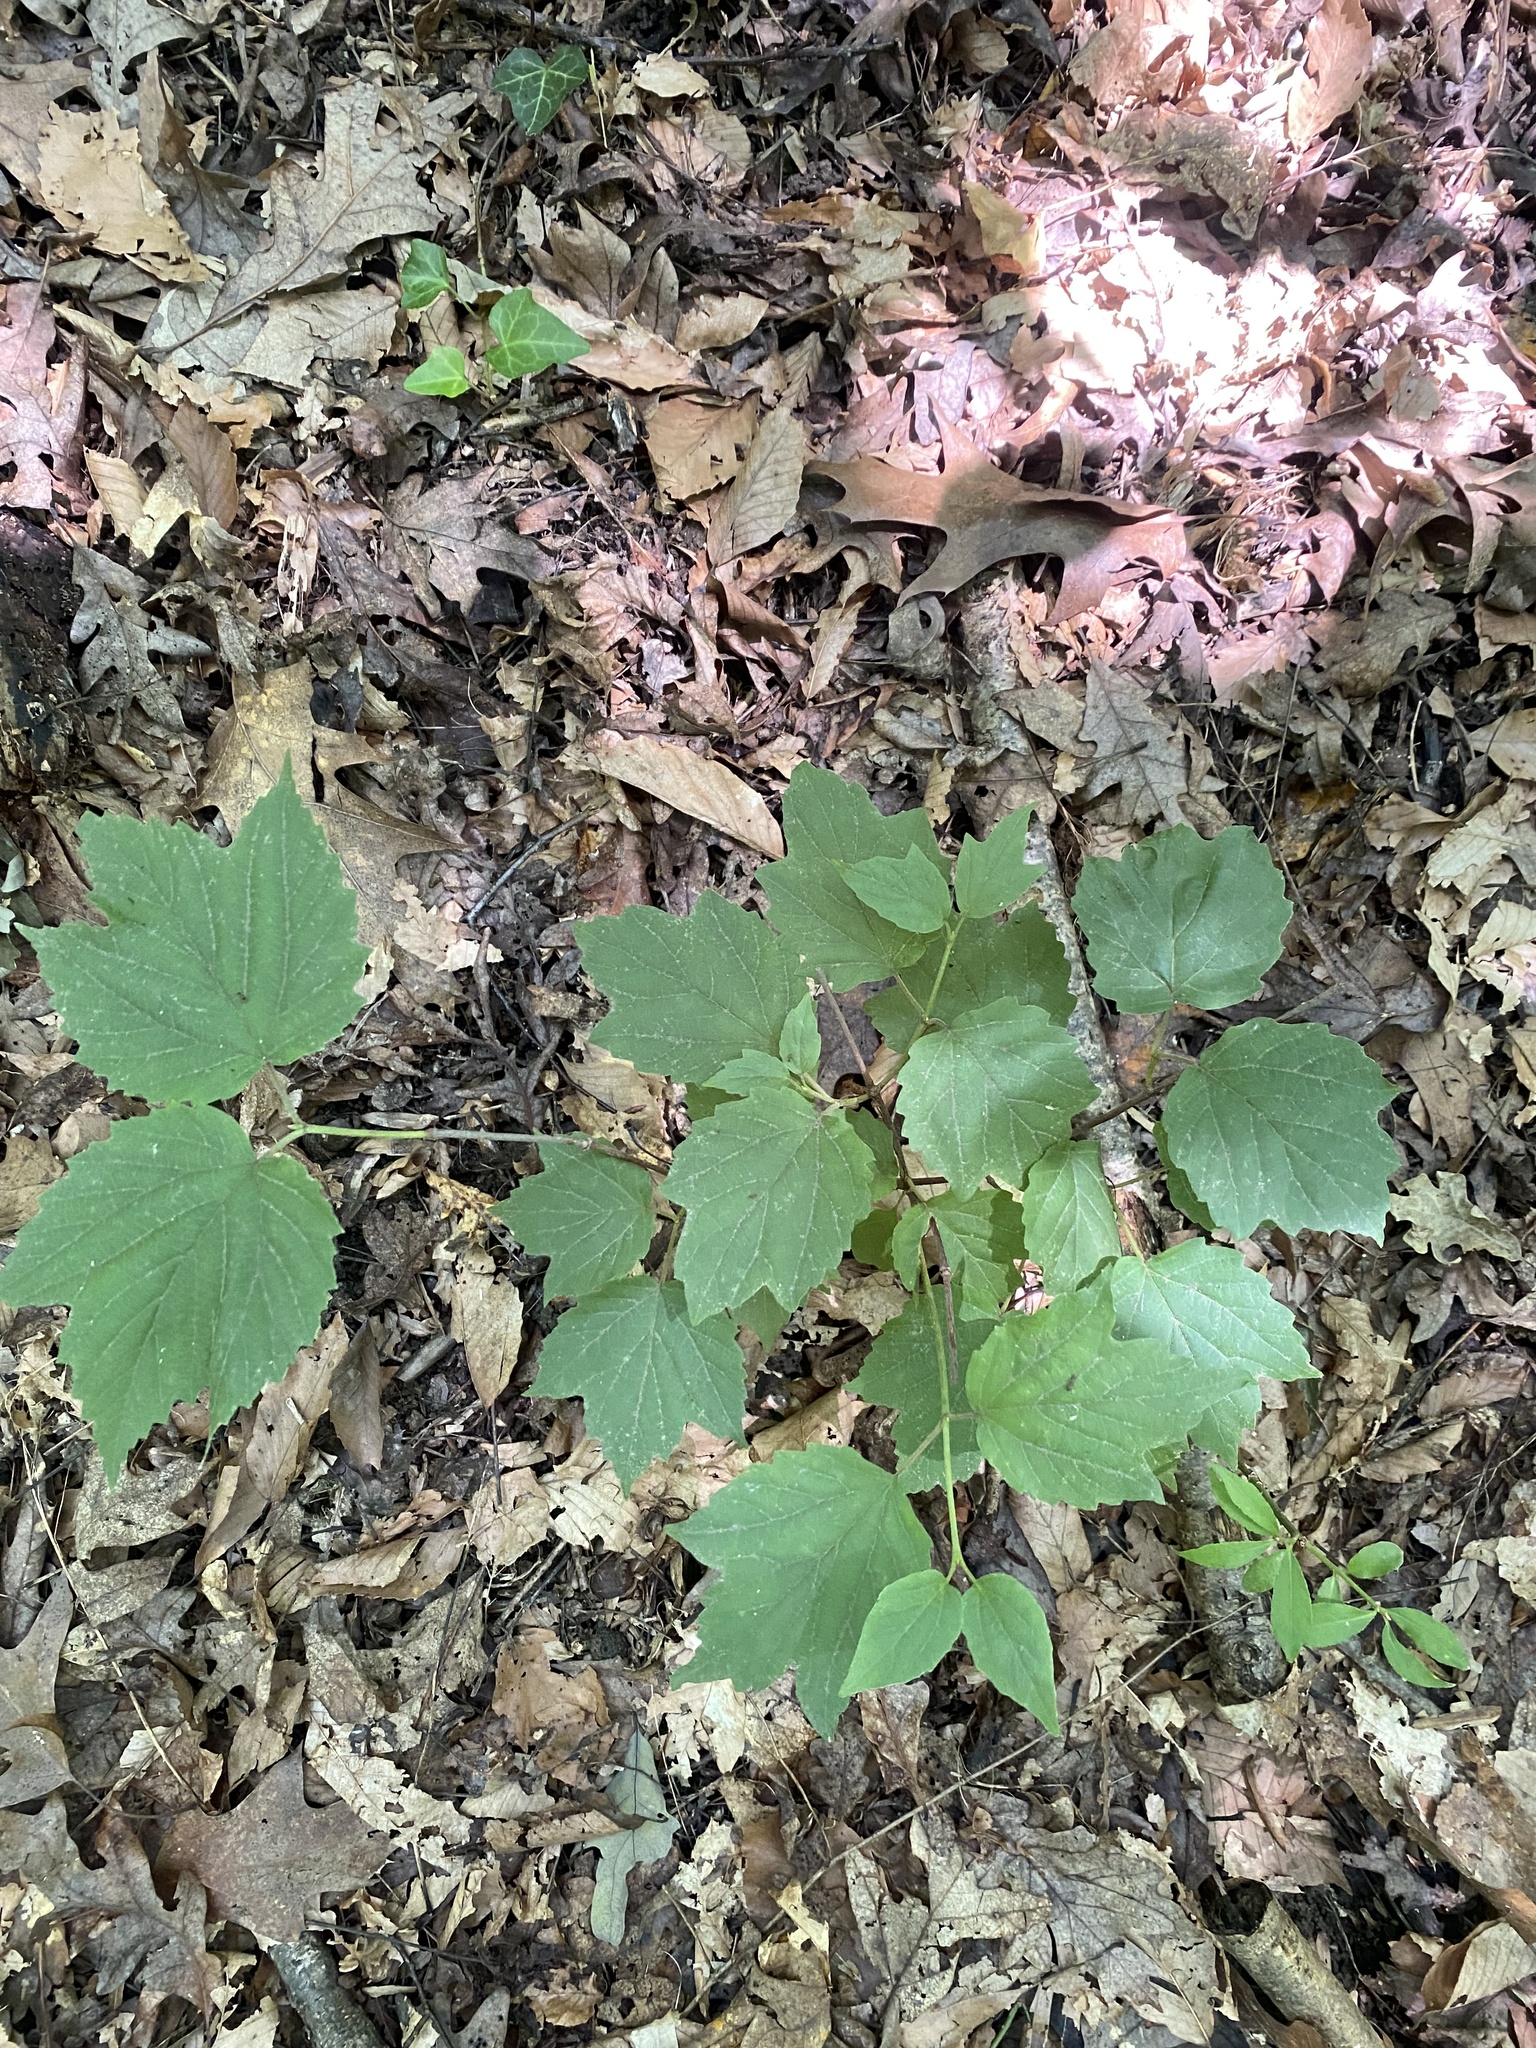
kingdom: Plantae
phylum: Tracheophyta
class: Magnoliopsida
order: Dipsacales
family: Viburnaceae
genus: Viburnum
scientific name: Viburnum acerifolium
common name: Dockmackie
